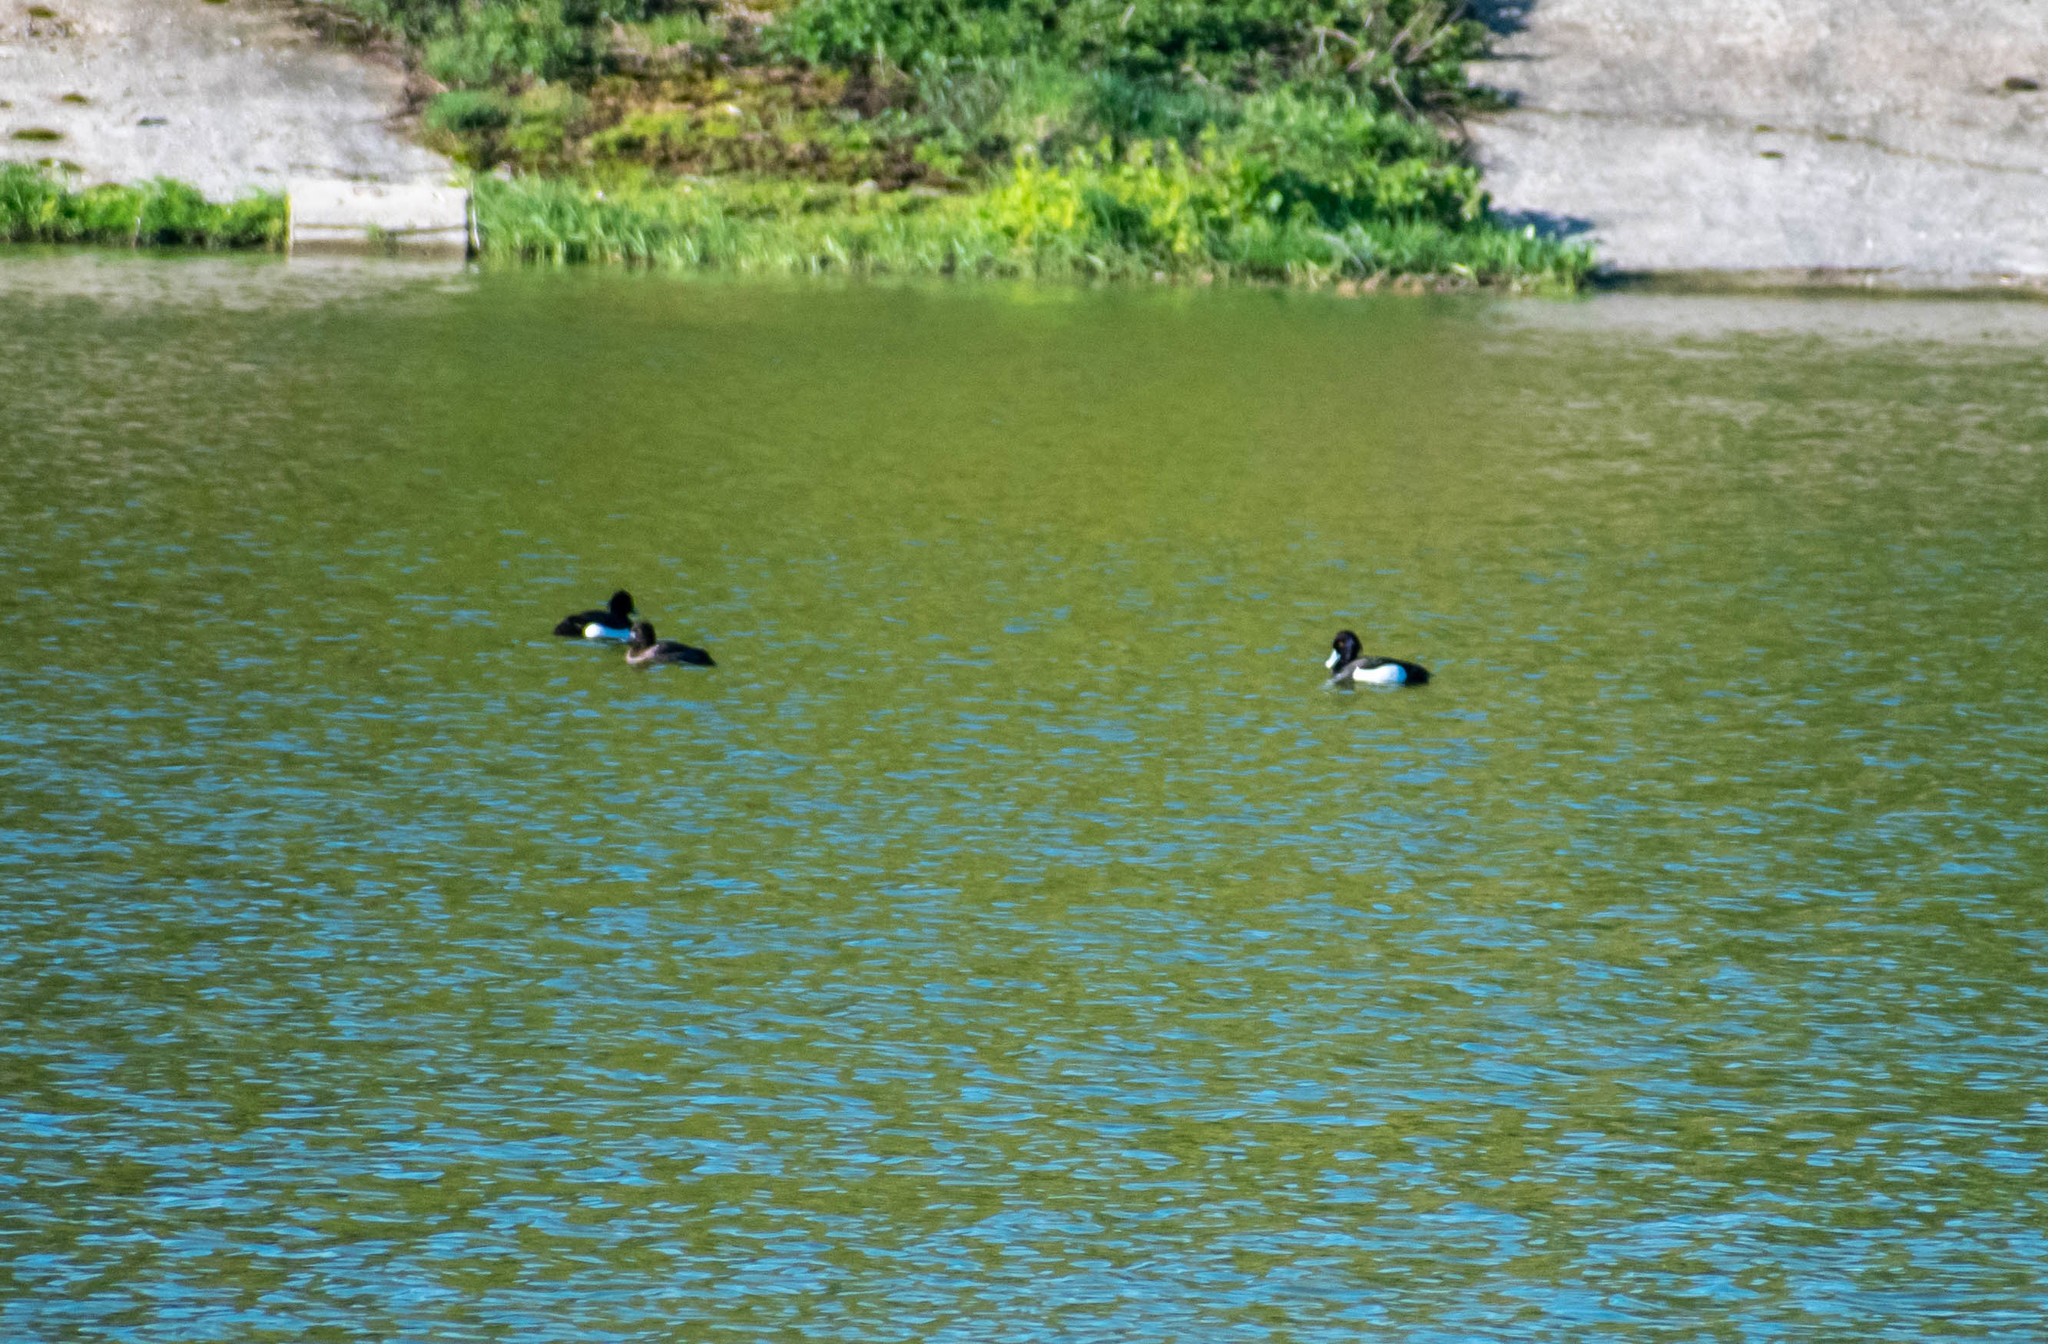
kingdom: Animalia
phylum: Chordata
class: Aves
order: Anseriformes
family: Anatidae
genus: Aythya
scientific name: Aythya fuligula
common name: Tufted duck
